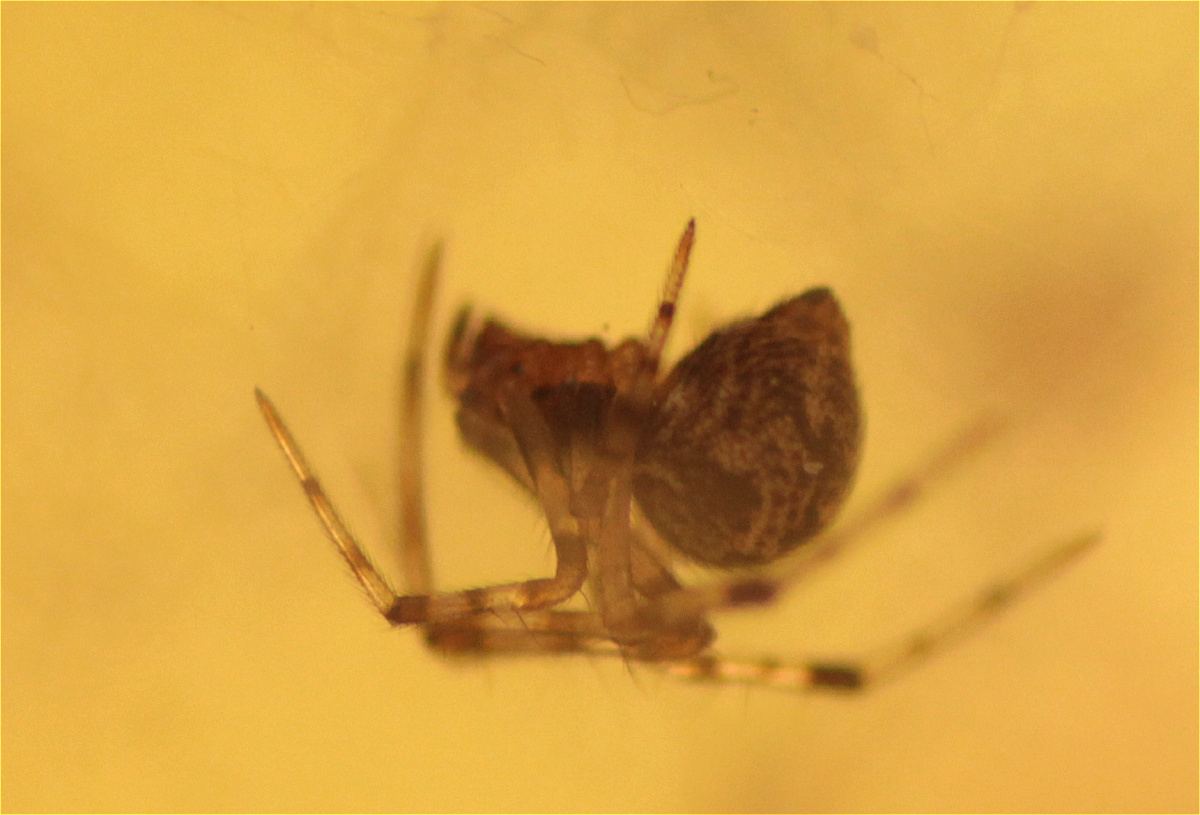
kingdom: Animalia
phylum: Arthropoda
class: Arachnida
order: Araneae
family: Theridiidae
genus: Parasteatoda
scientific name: Parasteatoda tepidariorum
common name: Common house spider
